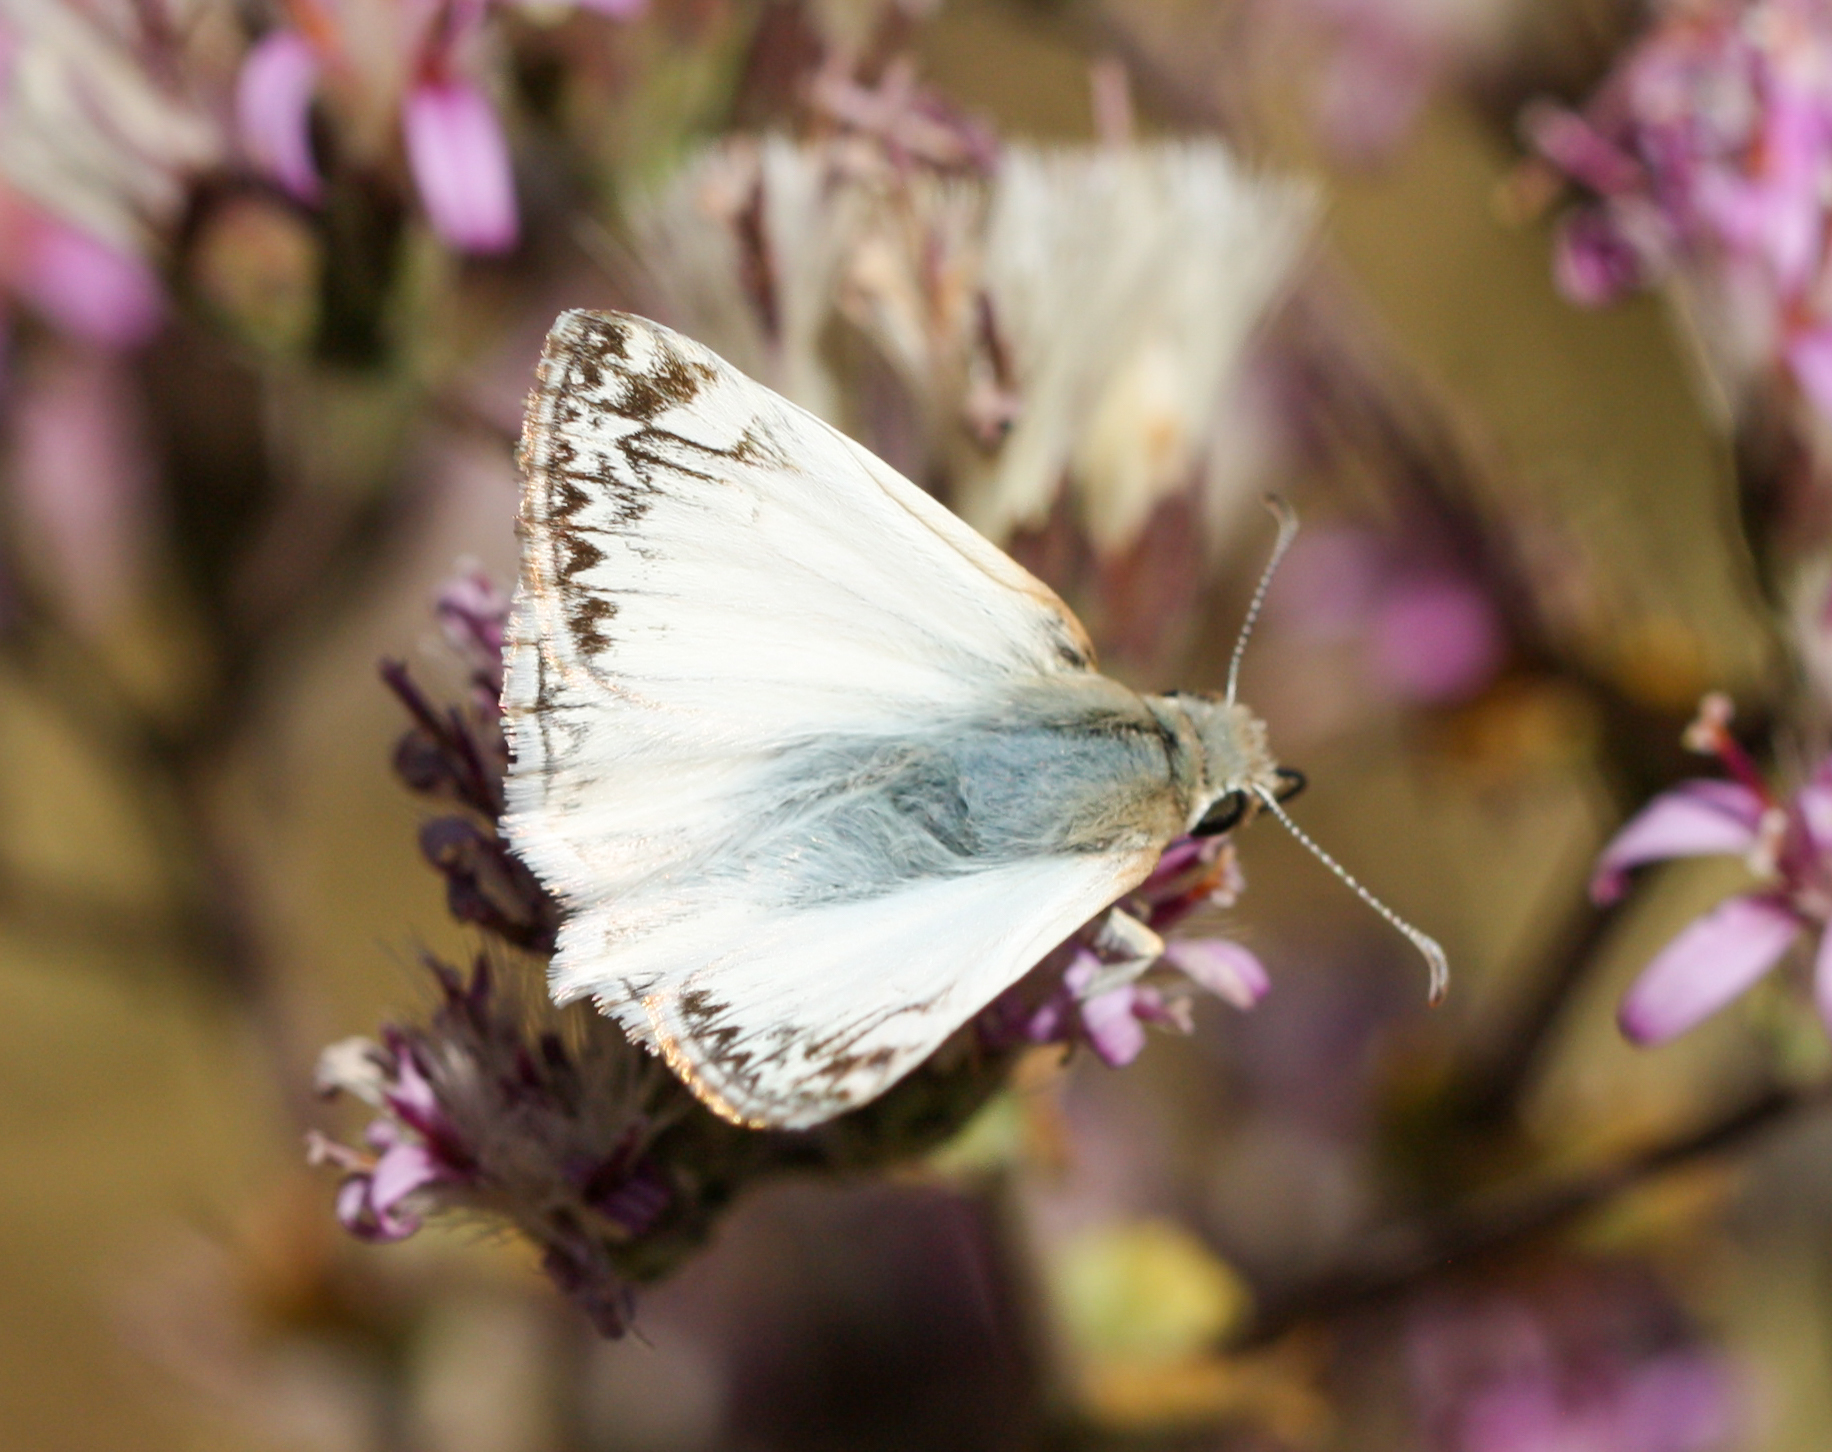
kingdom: Animalia
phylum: Arthropoda
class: Insecta
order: Lepidoptera
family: Hesperiidae
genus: Heliopetes
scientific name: Heliopetes ericetorum
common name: Northern white-skipper
